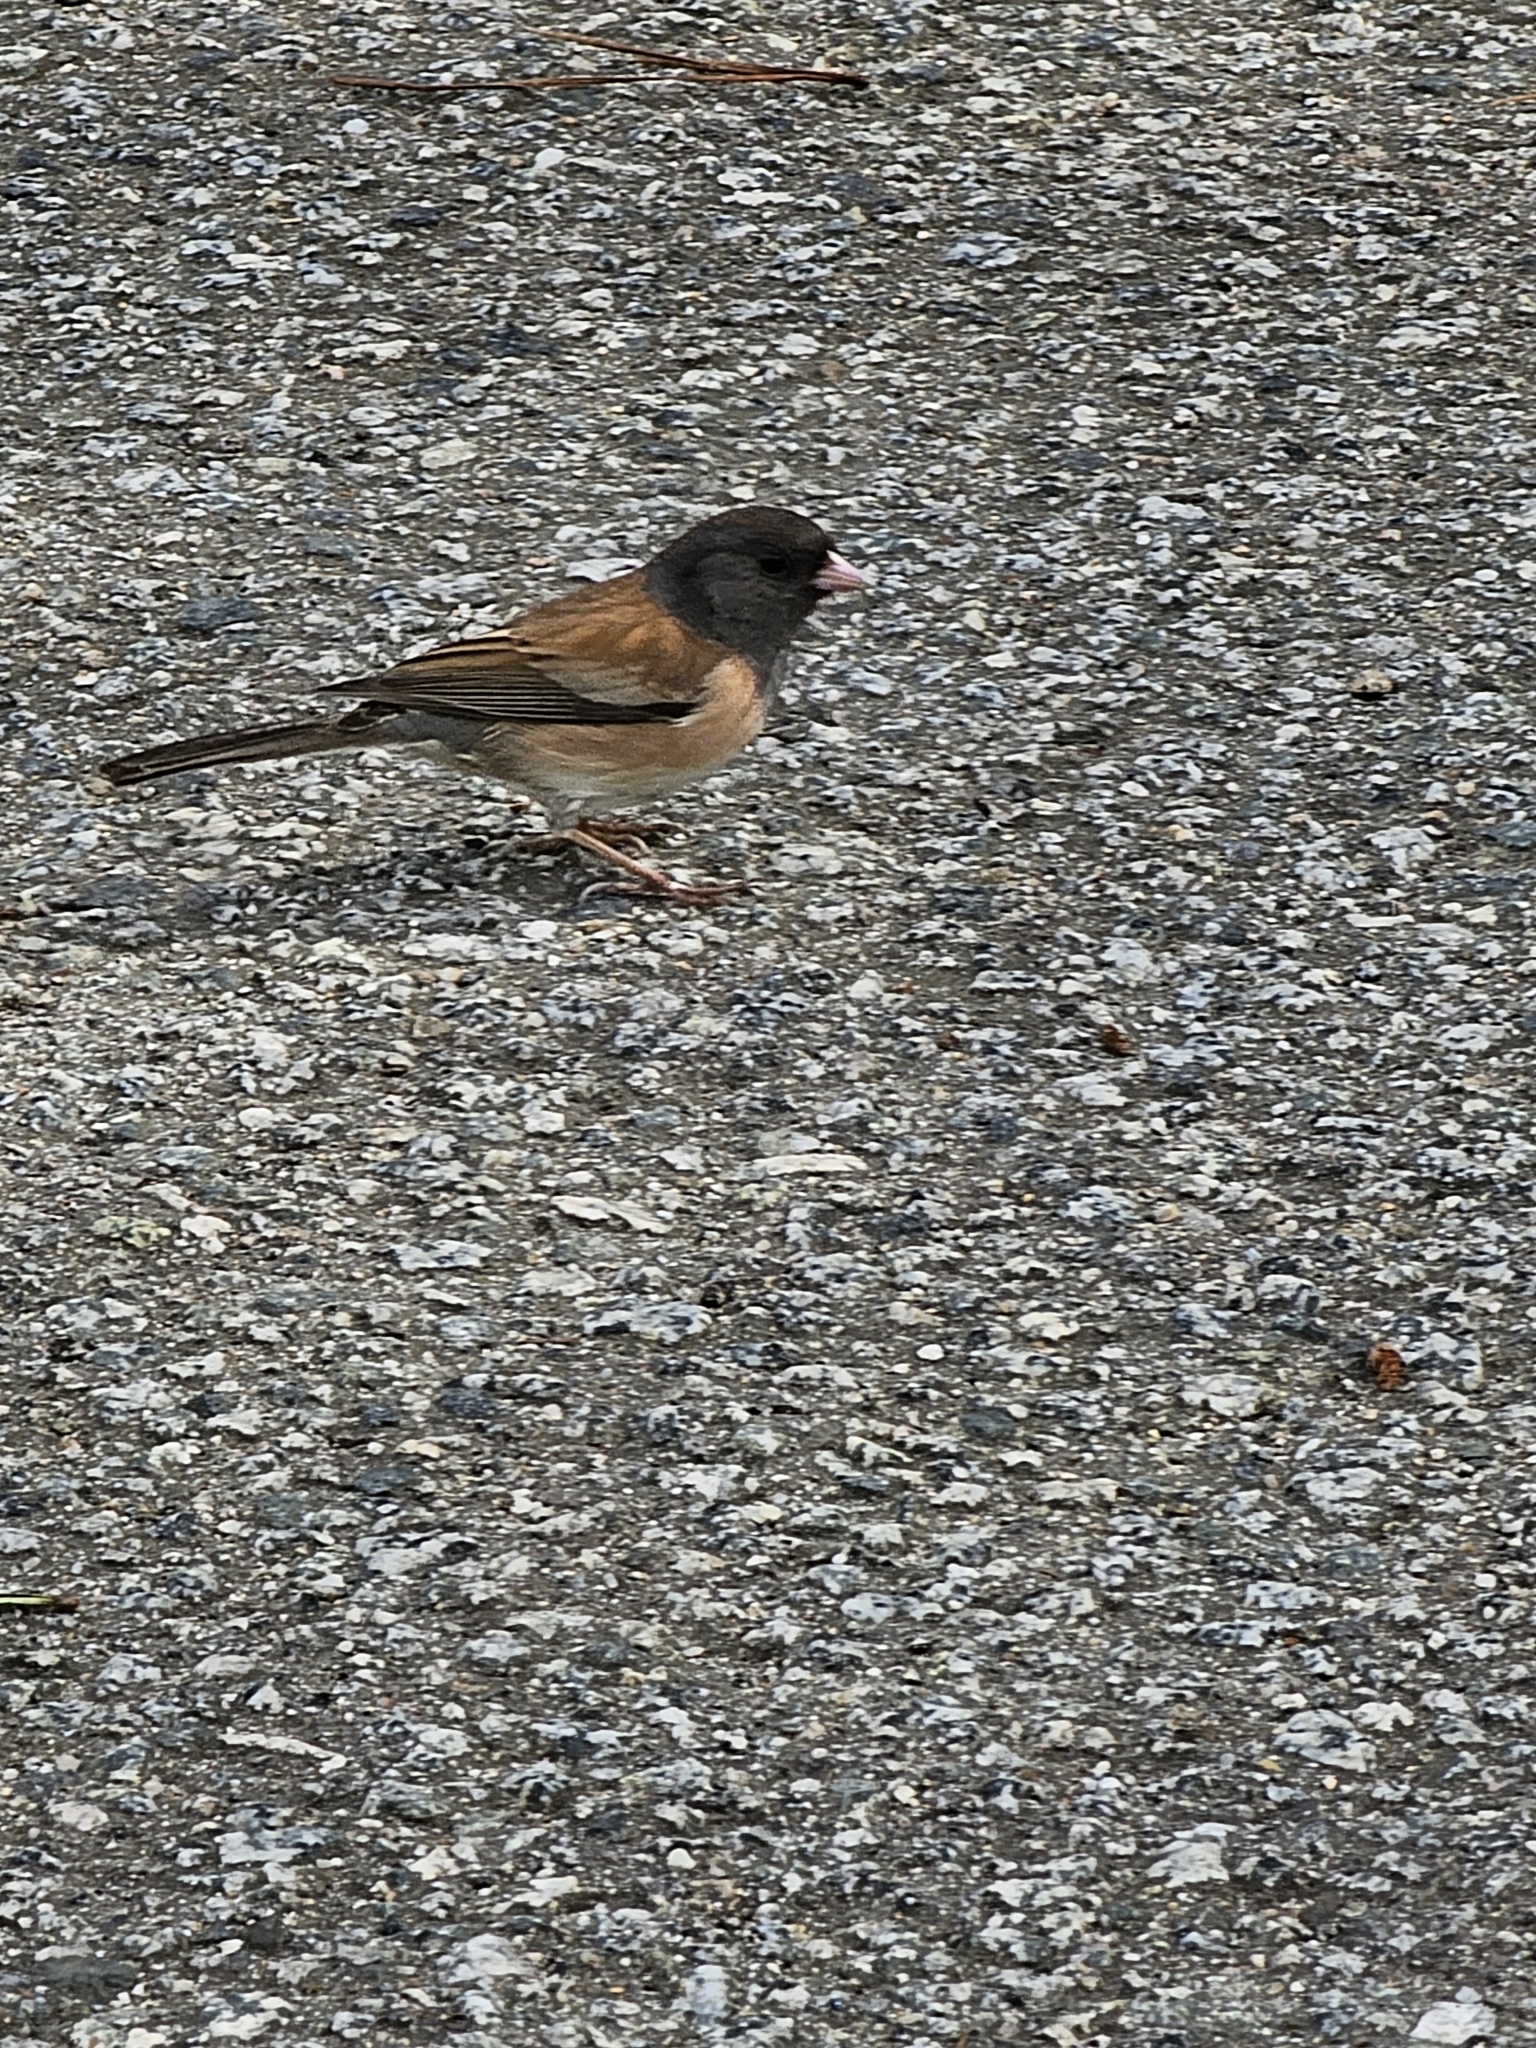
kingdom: Animalia
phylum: Chordata
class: Aves
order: Passeriformes
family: Passerellidae
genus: Junco
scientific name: Junco hyemalis
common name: Dark-eyed junco
